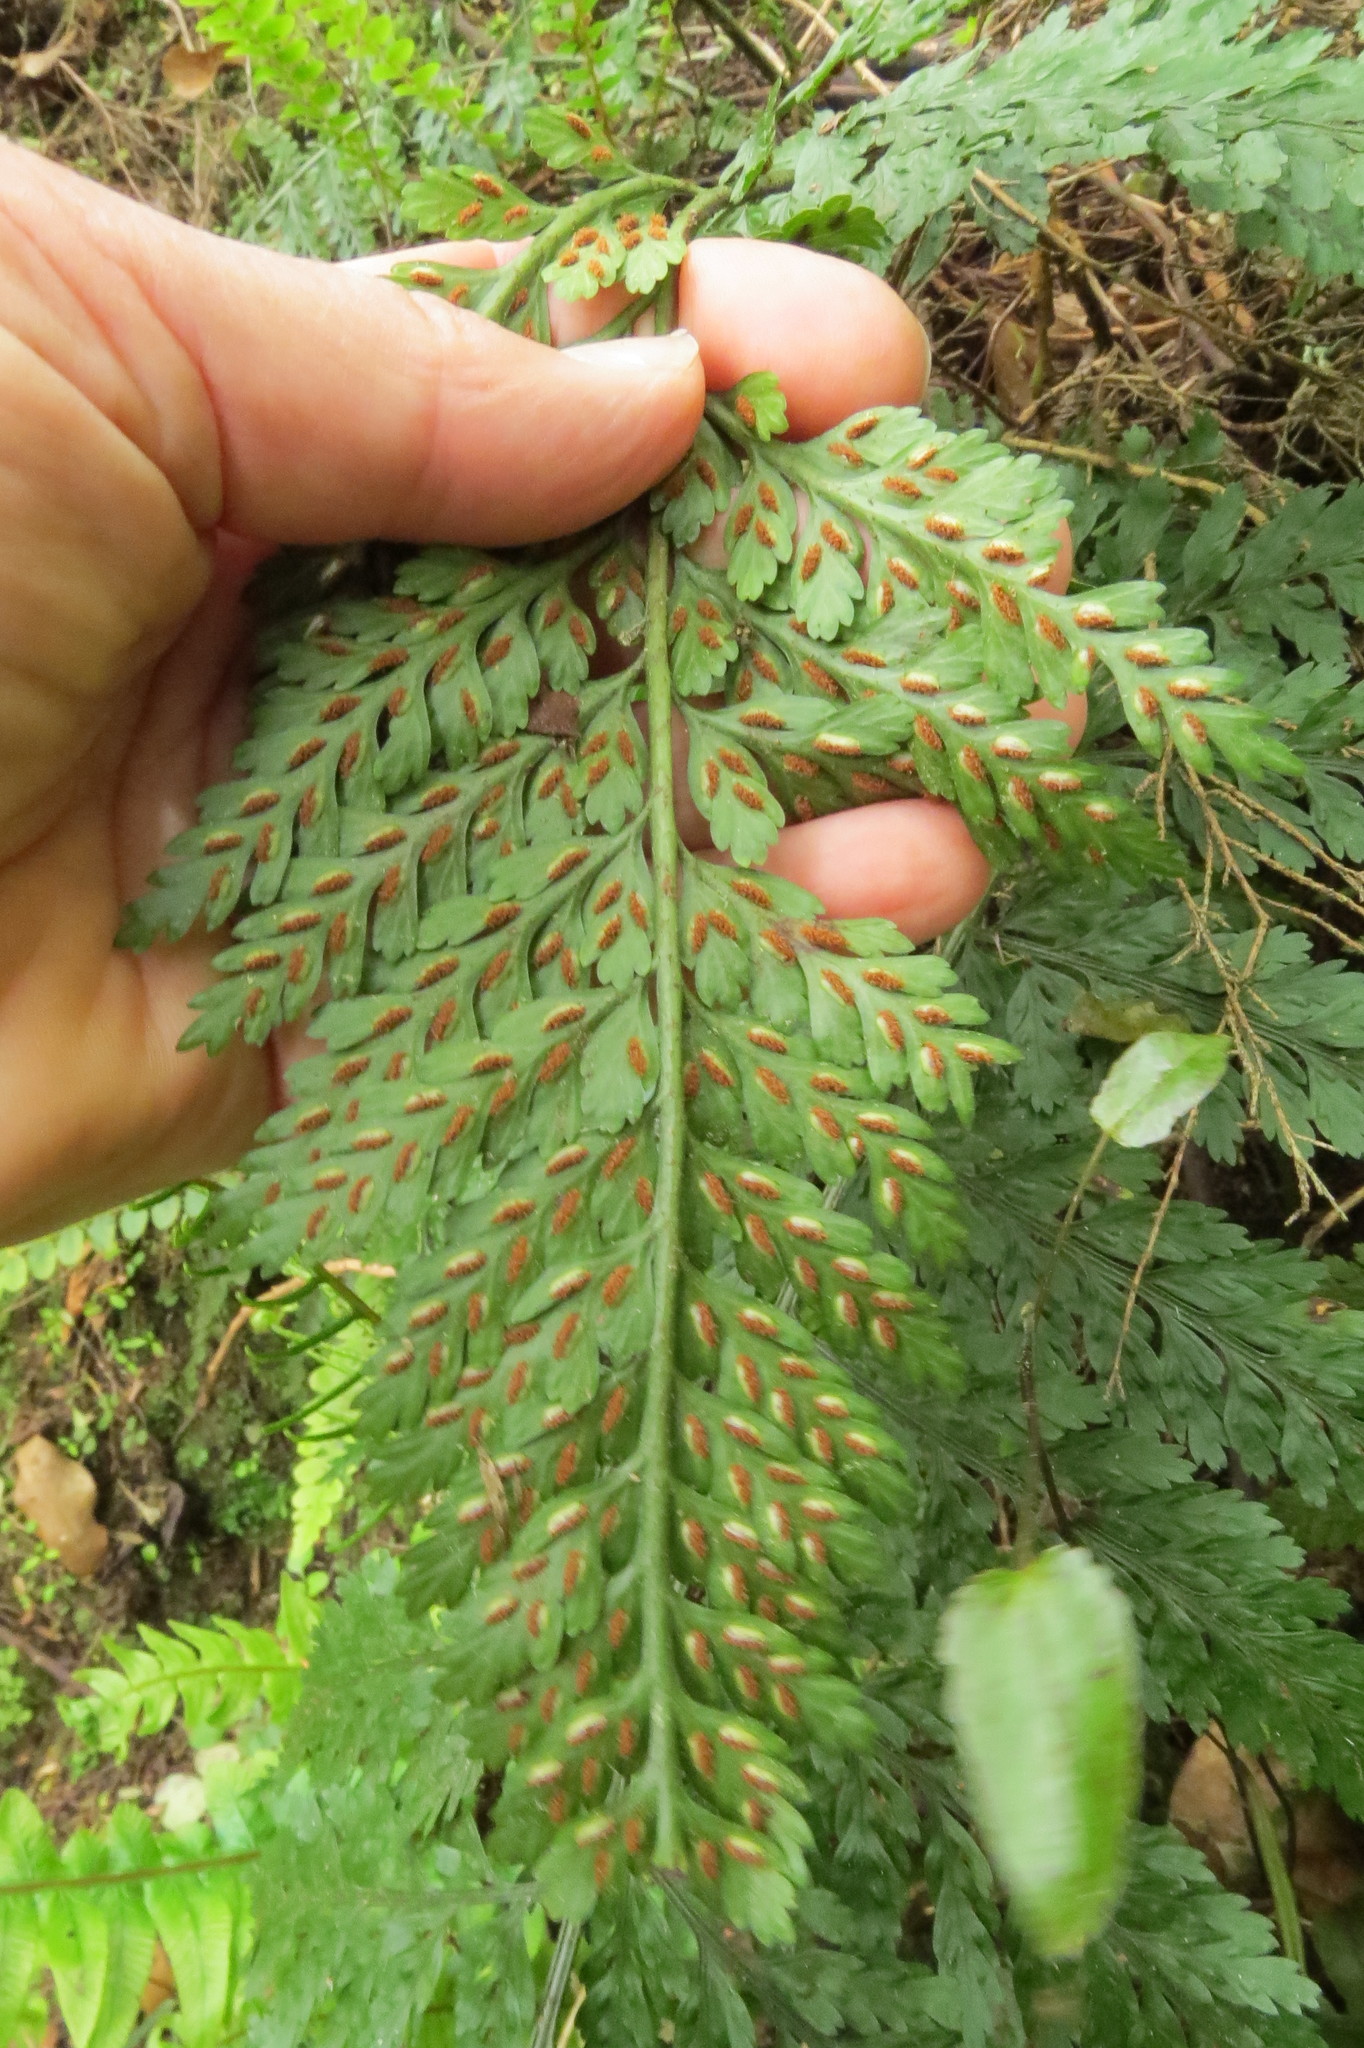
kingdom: Plantae
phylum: Tracheophyta
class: Polypodiopsida
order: Polypodiales
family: Aspleniaceae
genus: Asplenium
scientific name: Asplenium
